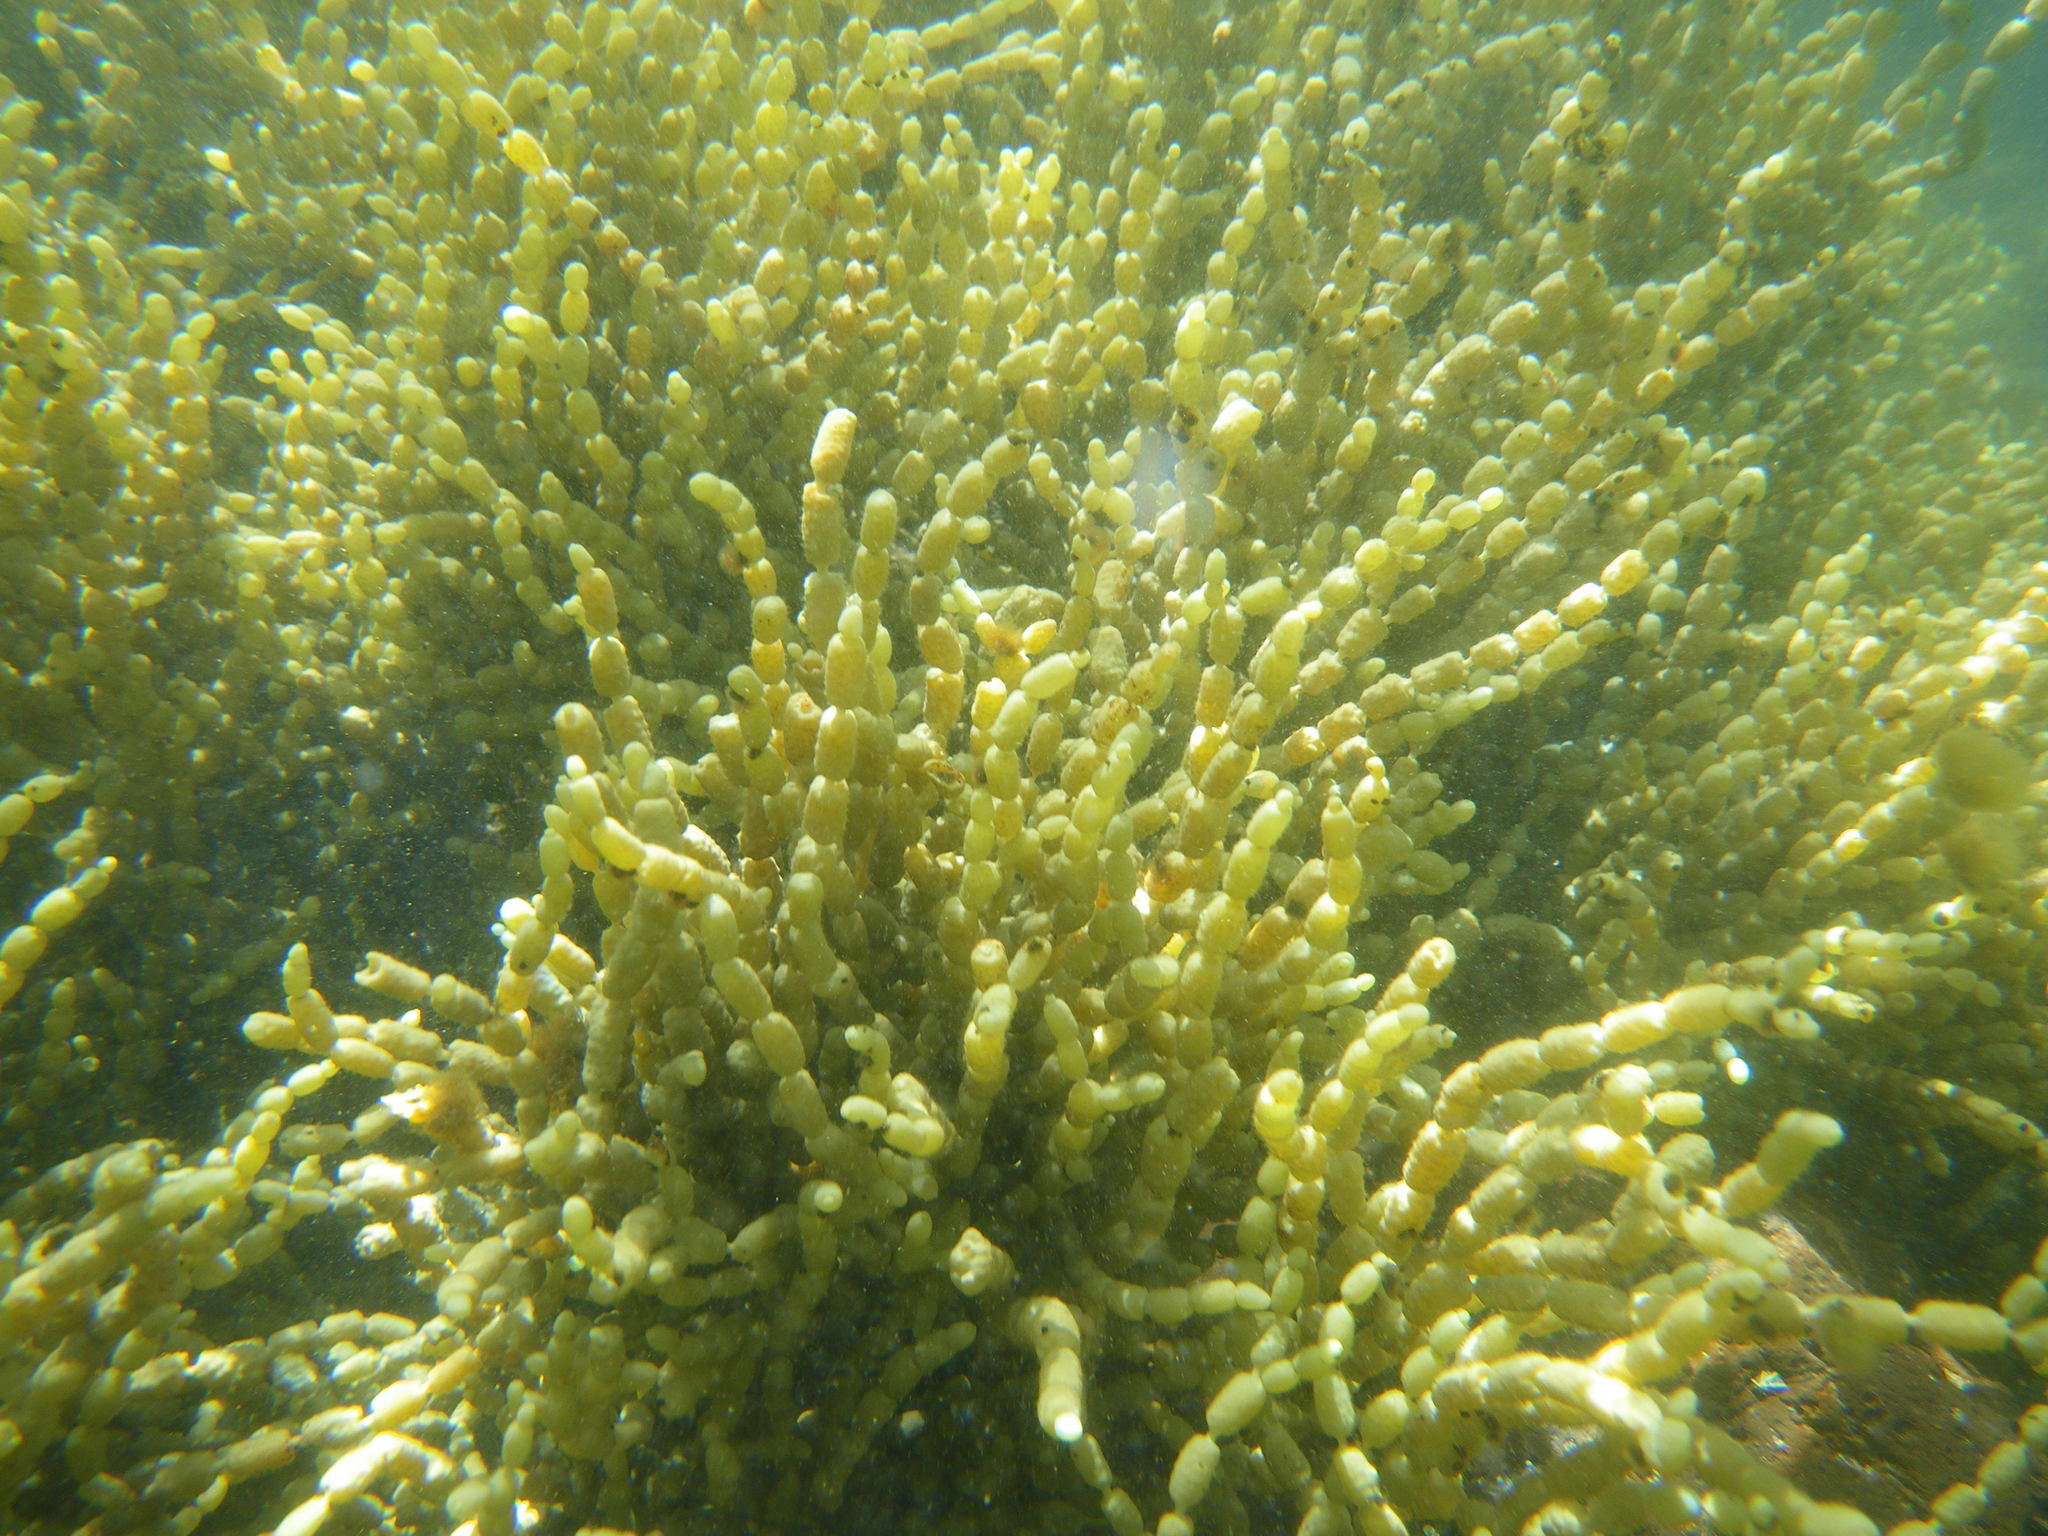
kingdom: Chromista
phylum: Ochrophyta
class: Phaeophyceae
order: Fucales
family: Hormosiraceae
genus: Hormosira
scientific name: Hormosira banksii
